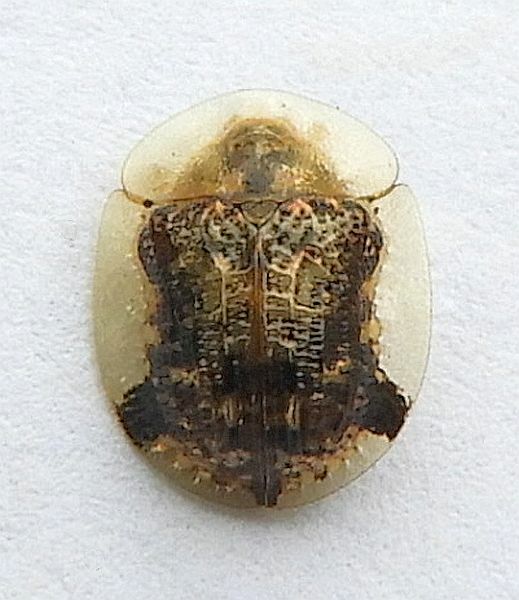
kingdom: Animalia
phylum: Arthropoda
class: Insecta
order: Coleoptera
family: Chrysomelidae
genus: Cassida
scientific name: Cassida piperata
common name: Small tortoise beetle
